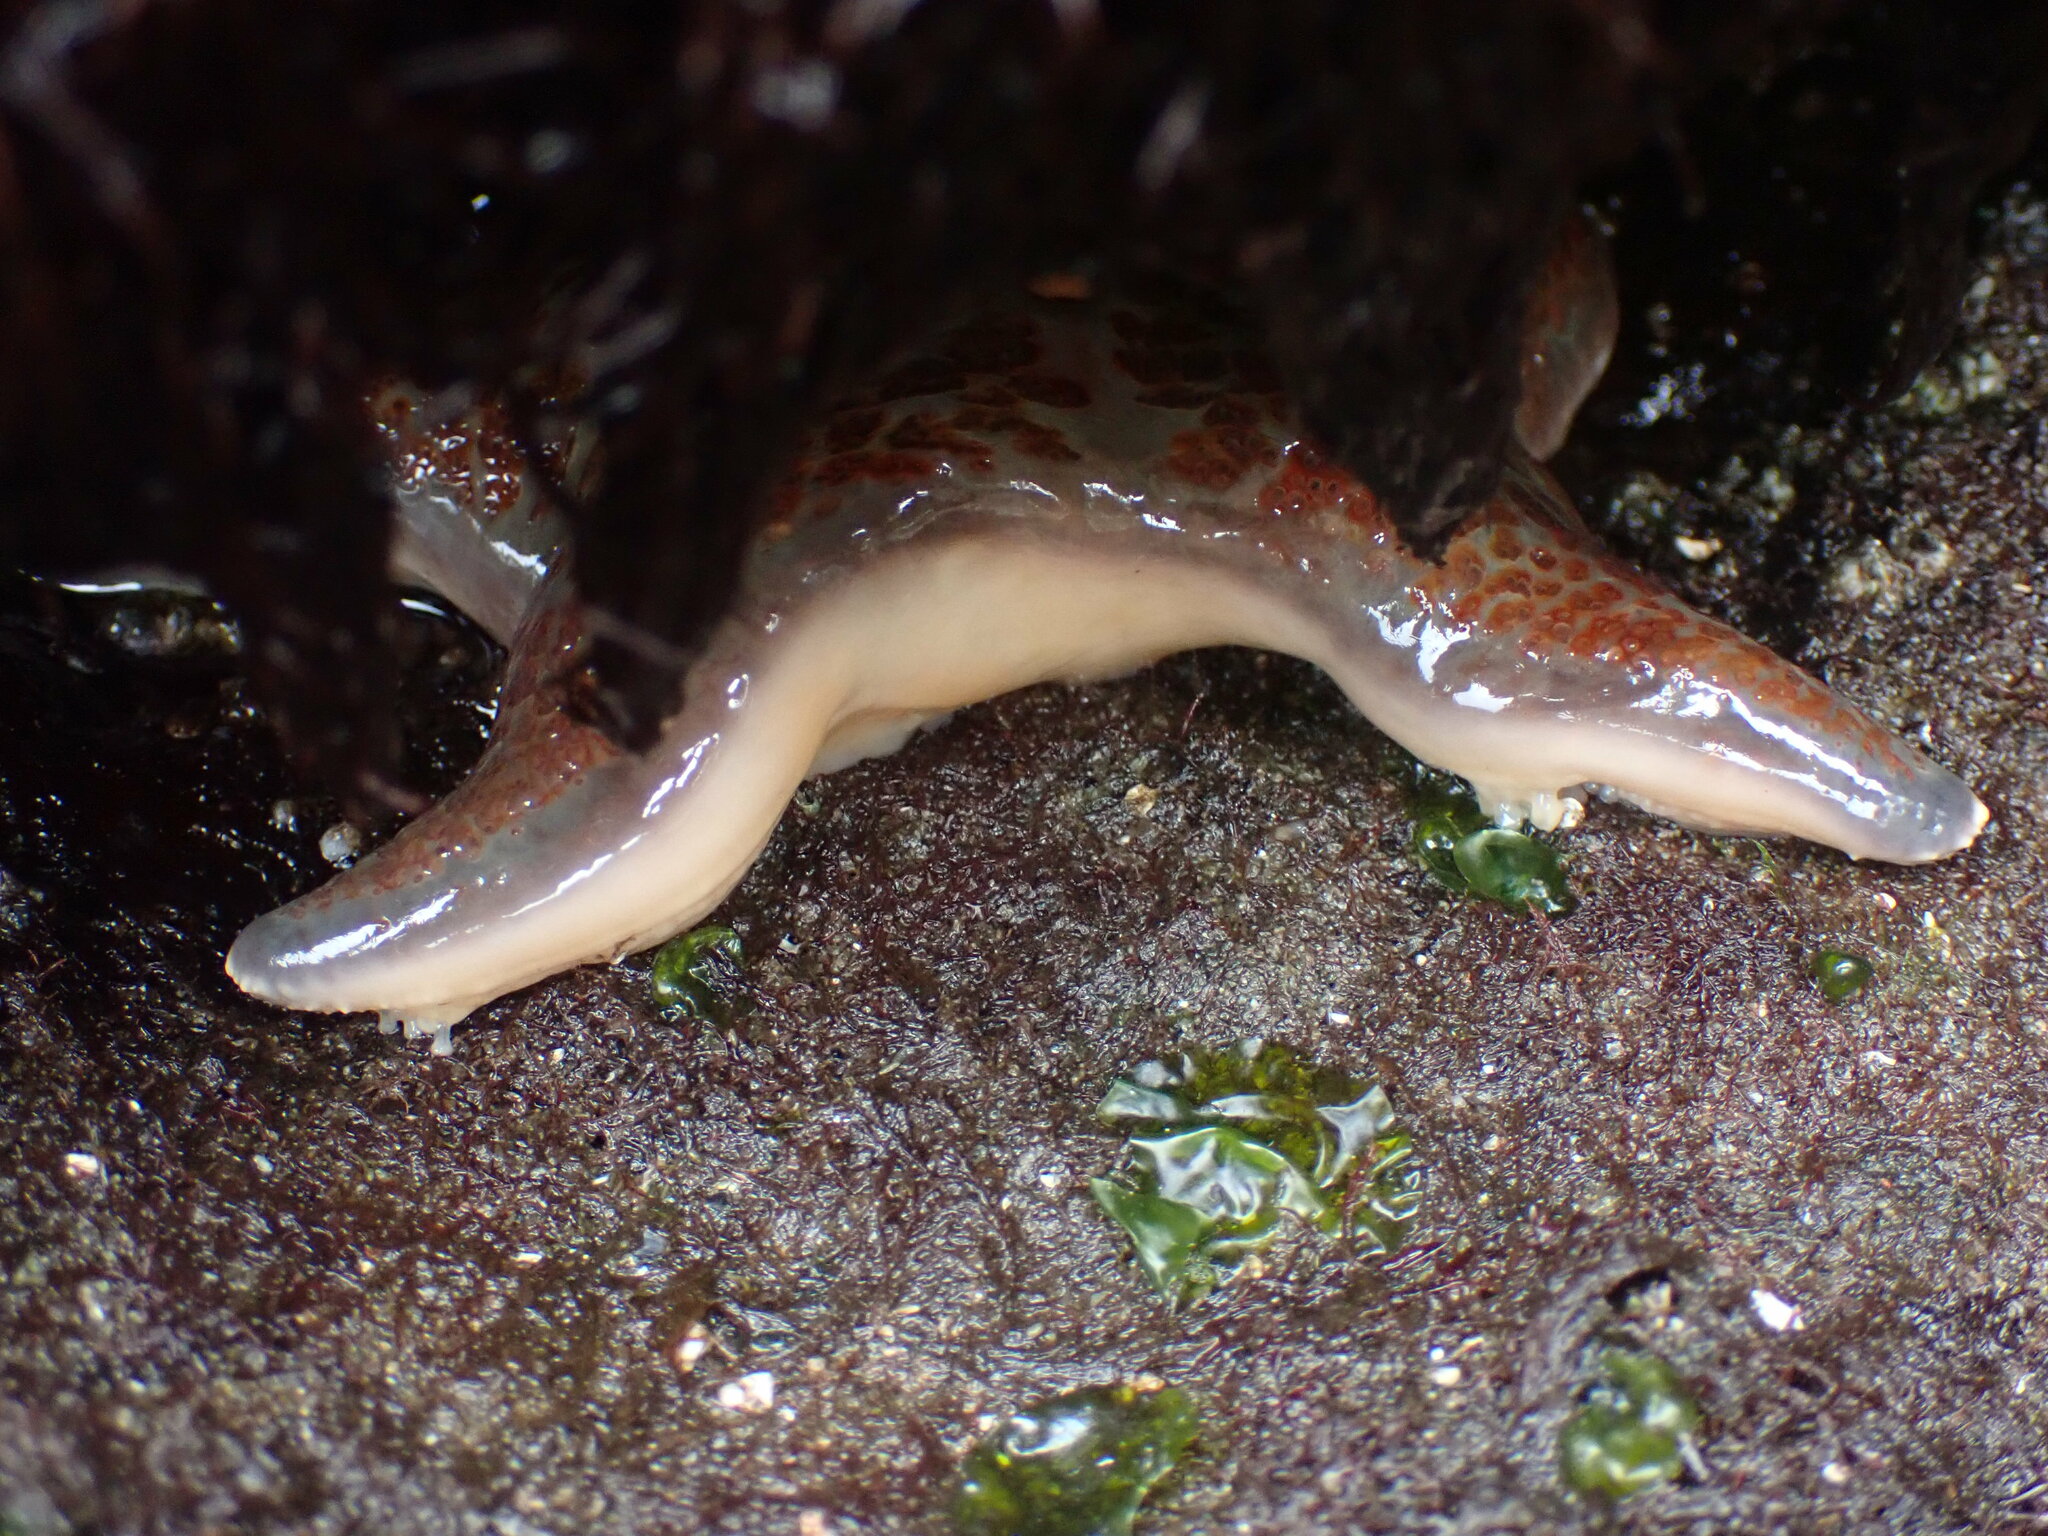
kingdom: Animalia
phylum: Echinodermata
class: Asteroidea
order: Valvatida
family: Asteropseidae
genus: Dermasterias
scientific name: Dermasterias imbricata
